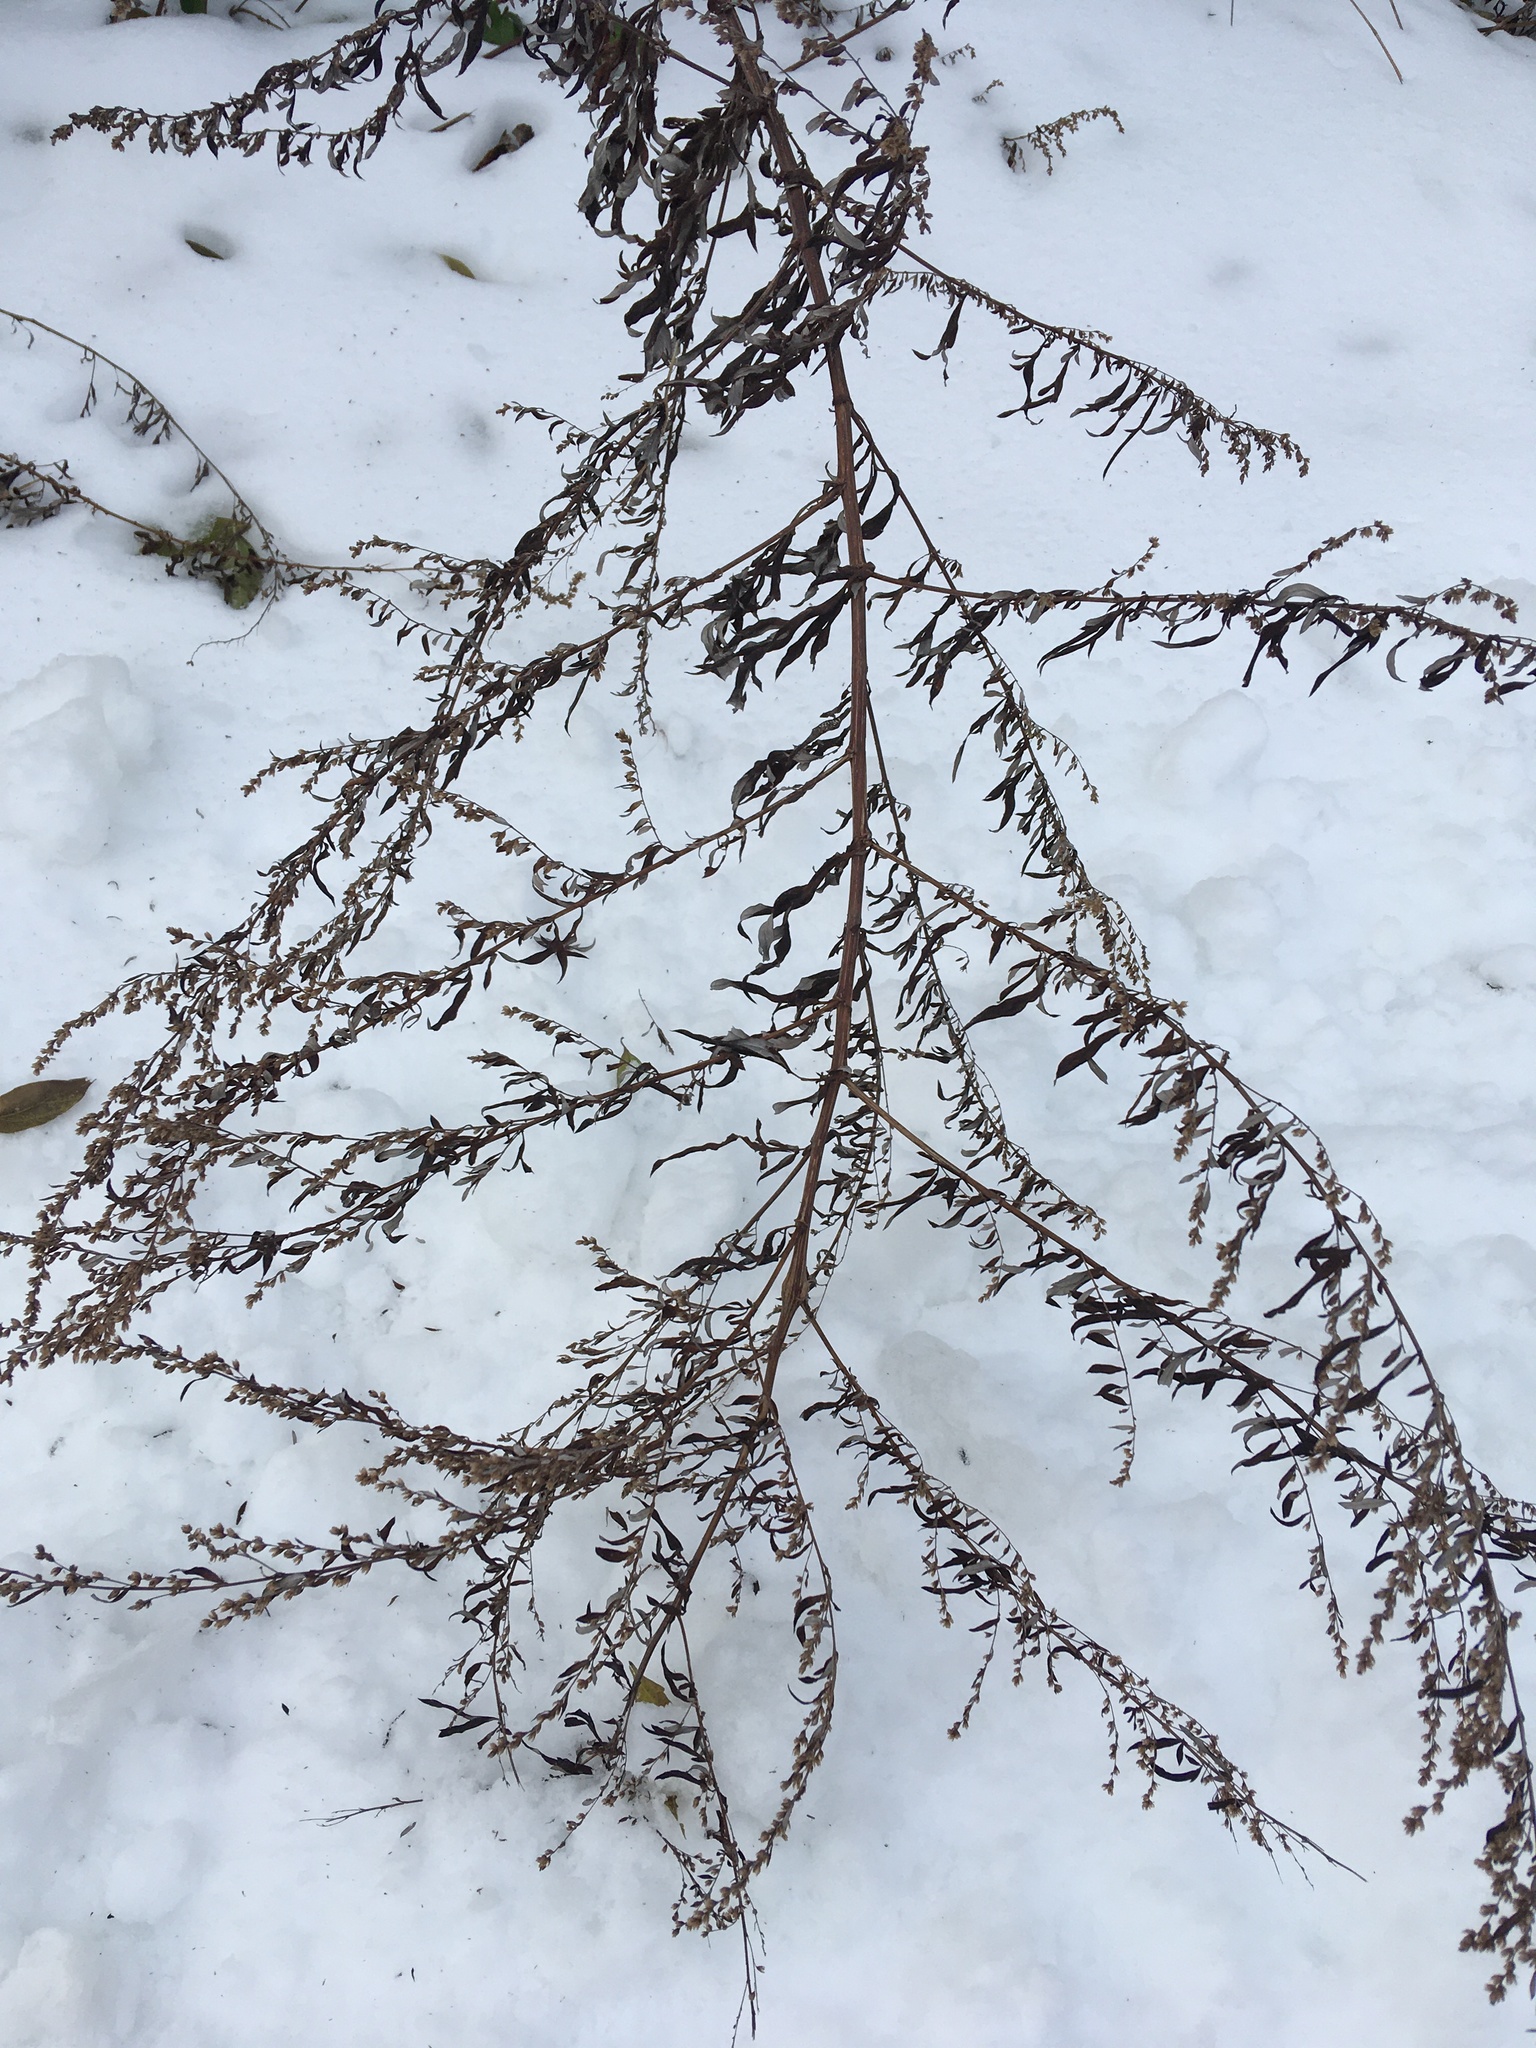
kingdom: Plantae
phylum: Tracheophyta
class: Magnoliopsida
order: Asterales
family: Asteraceae
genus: Artemisia
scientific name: Artemisia vulgaris
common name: Mugwort
